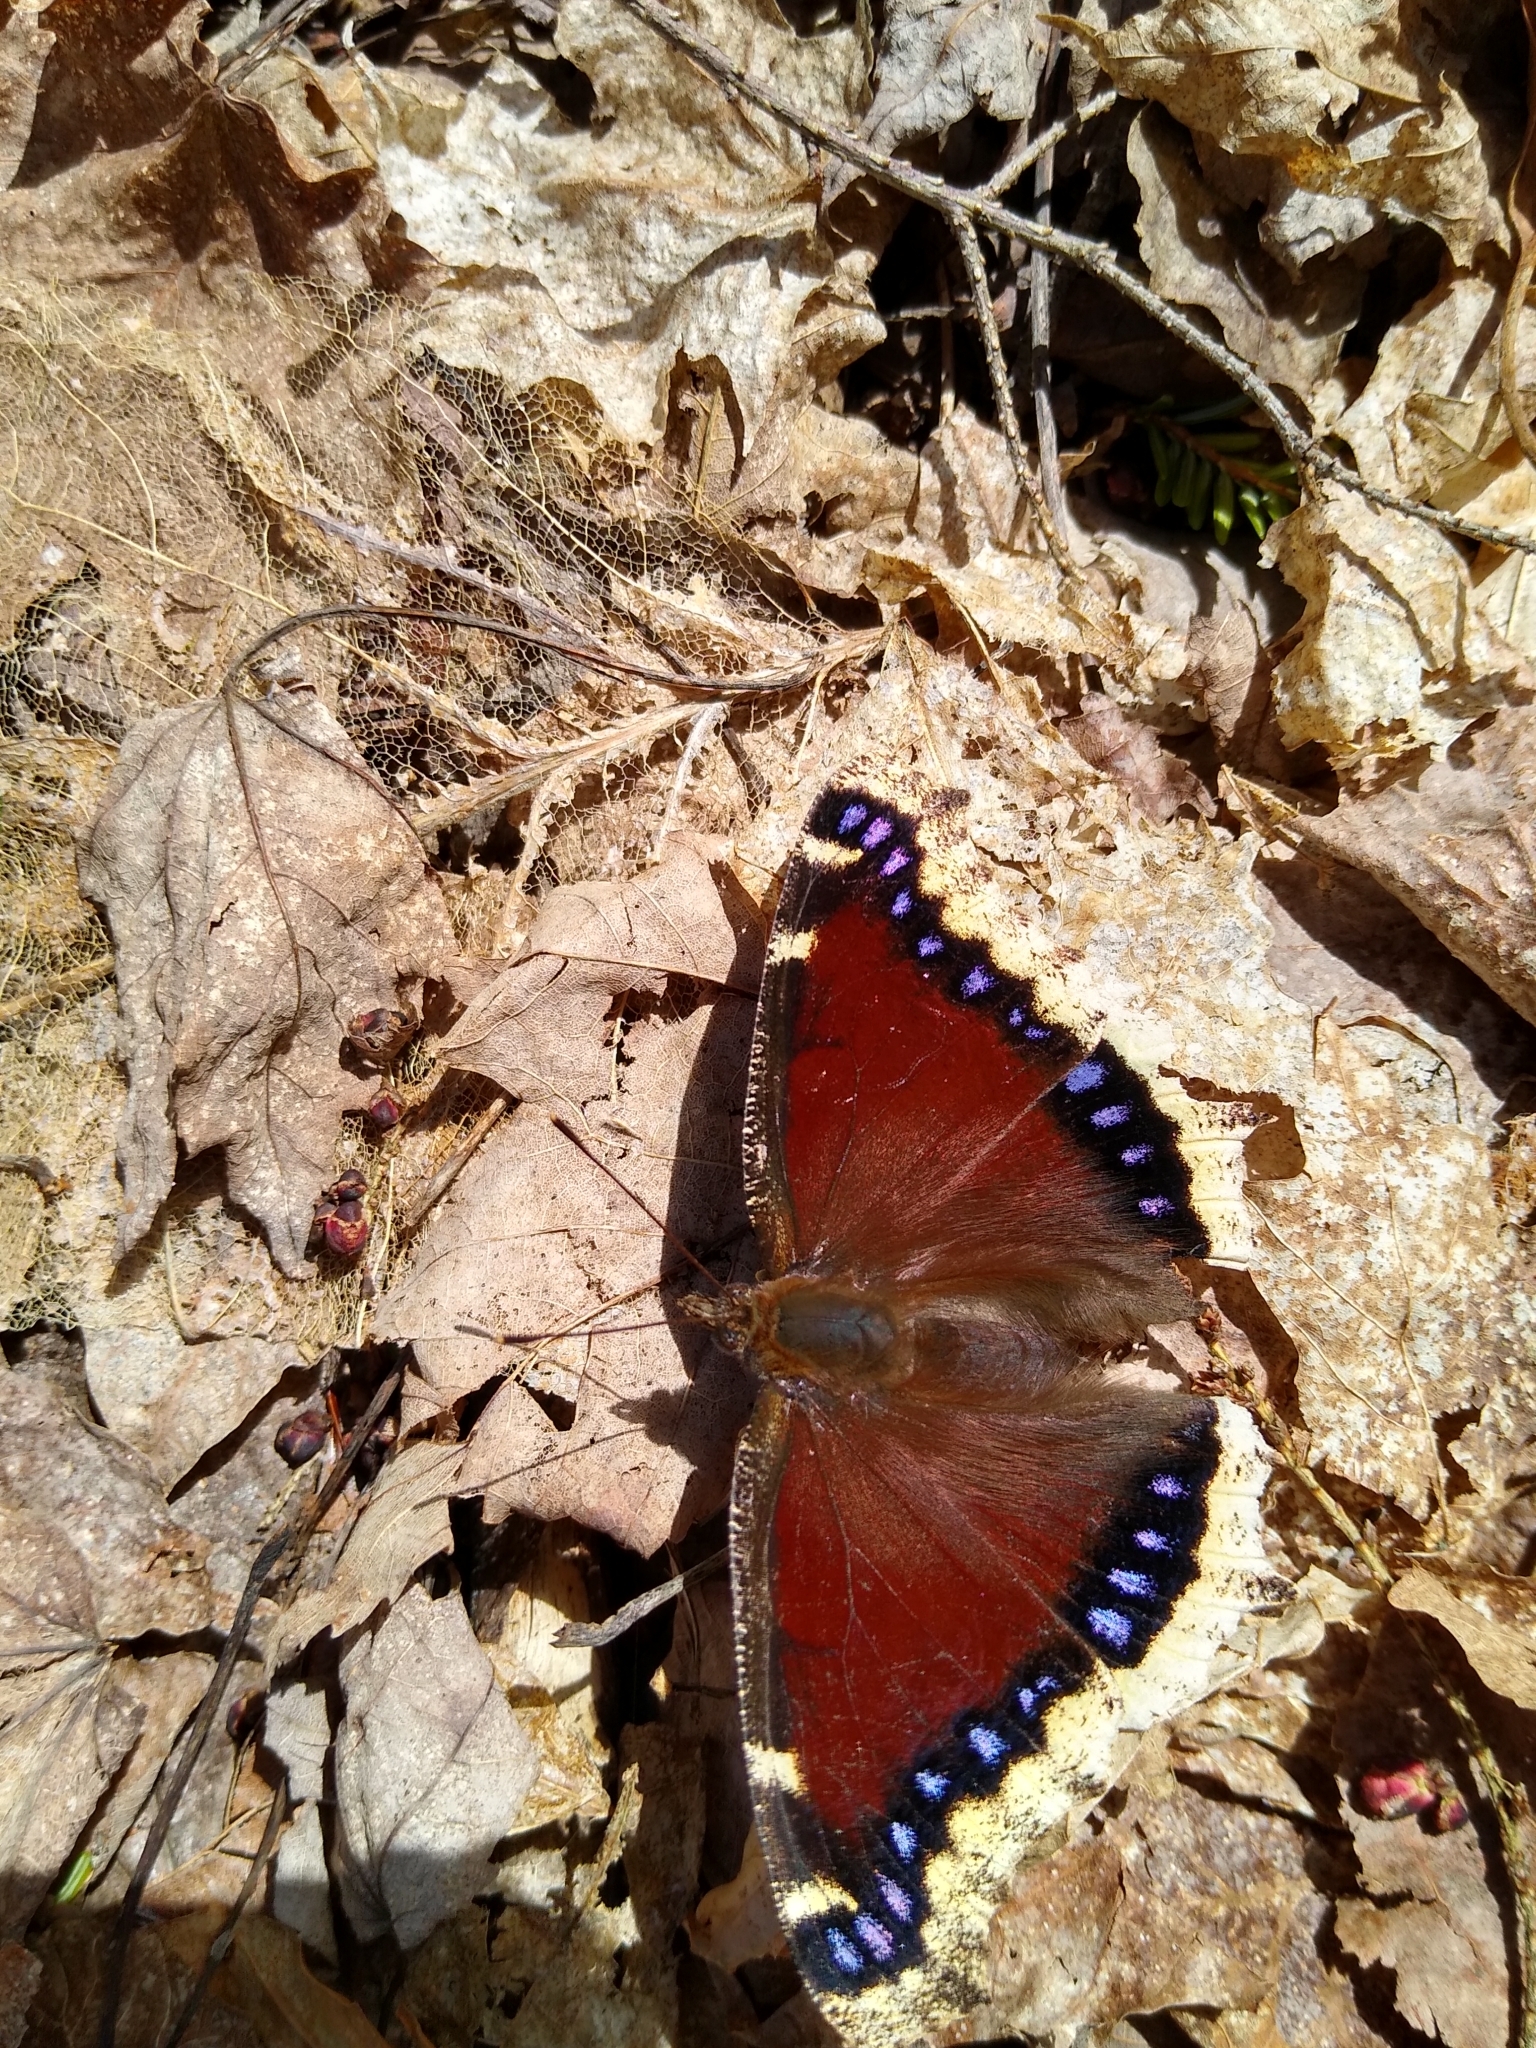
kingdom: Animalia
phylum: Arthropoda
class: Insecta
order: Lepidoptera
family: Nymphalidae
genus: Nymphalis
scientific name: Nymphalis antiopa
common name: Camberwell beauty
